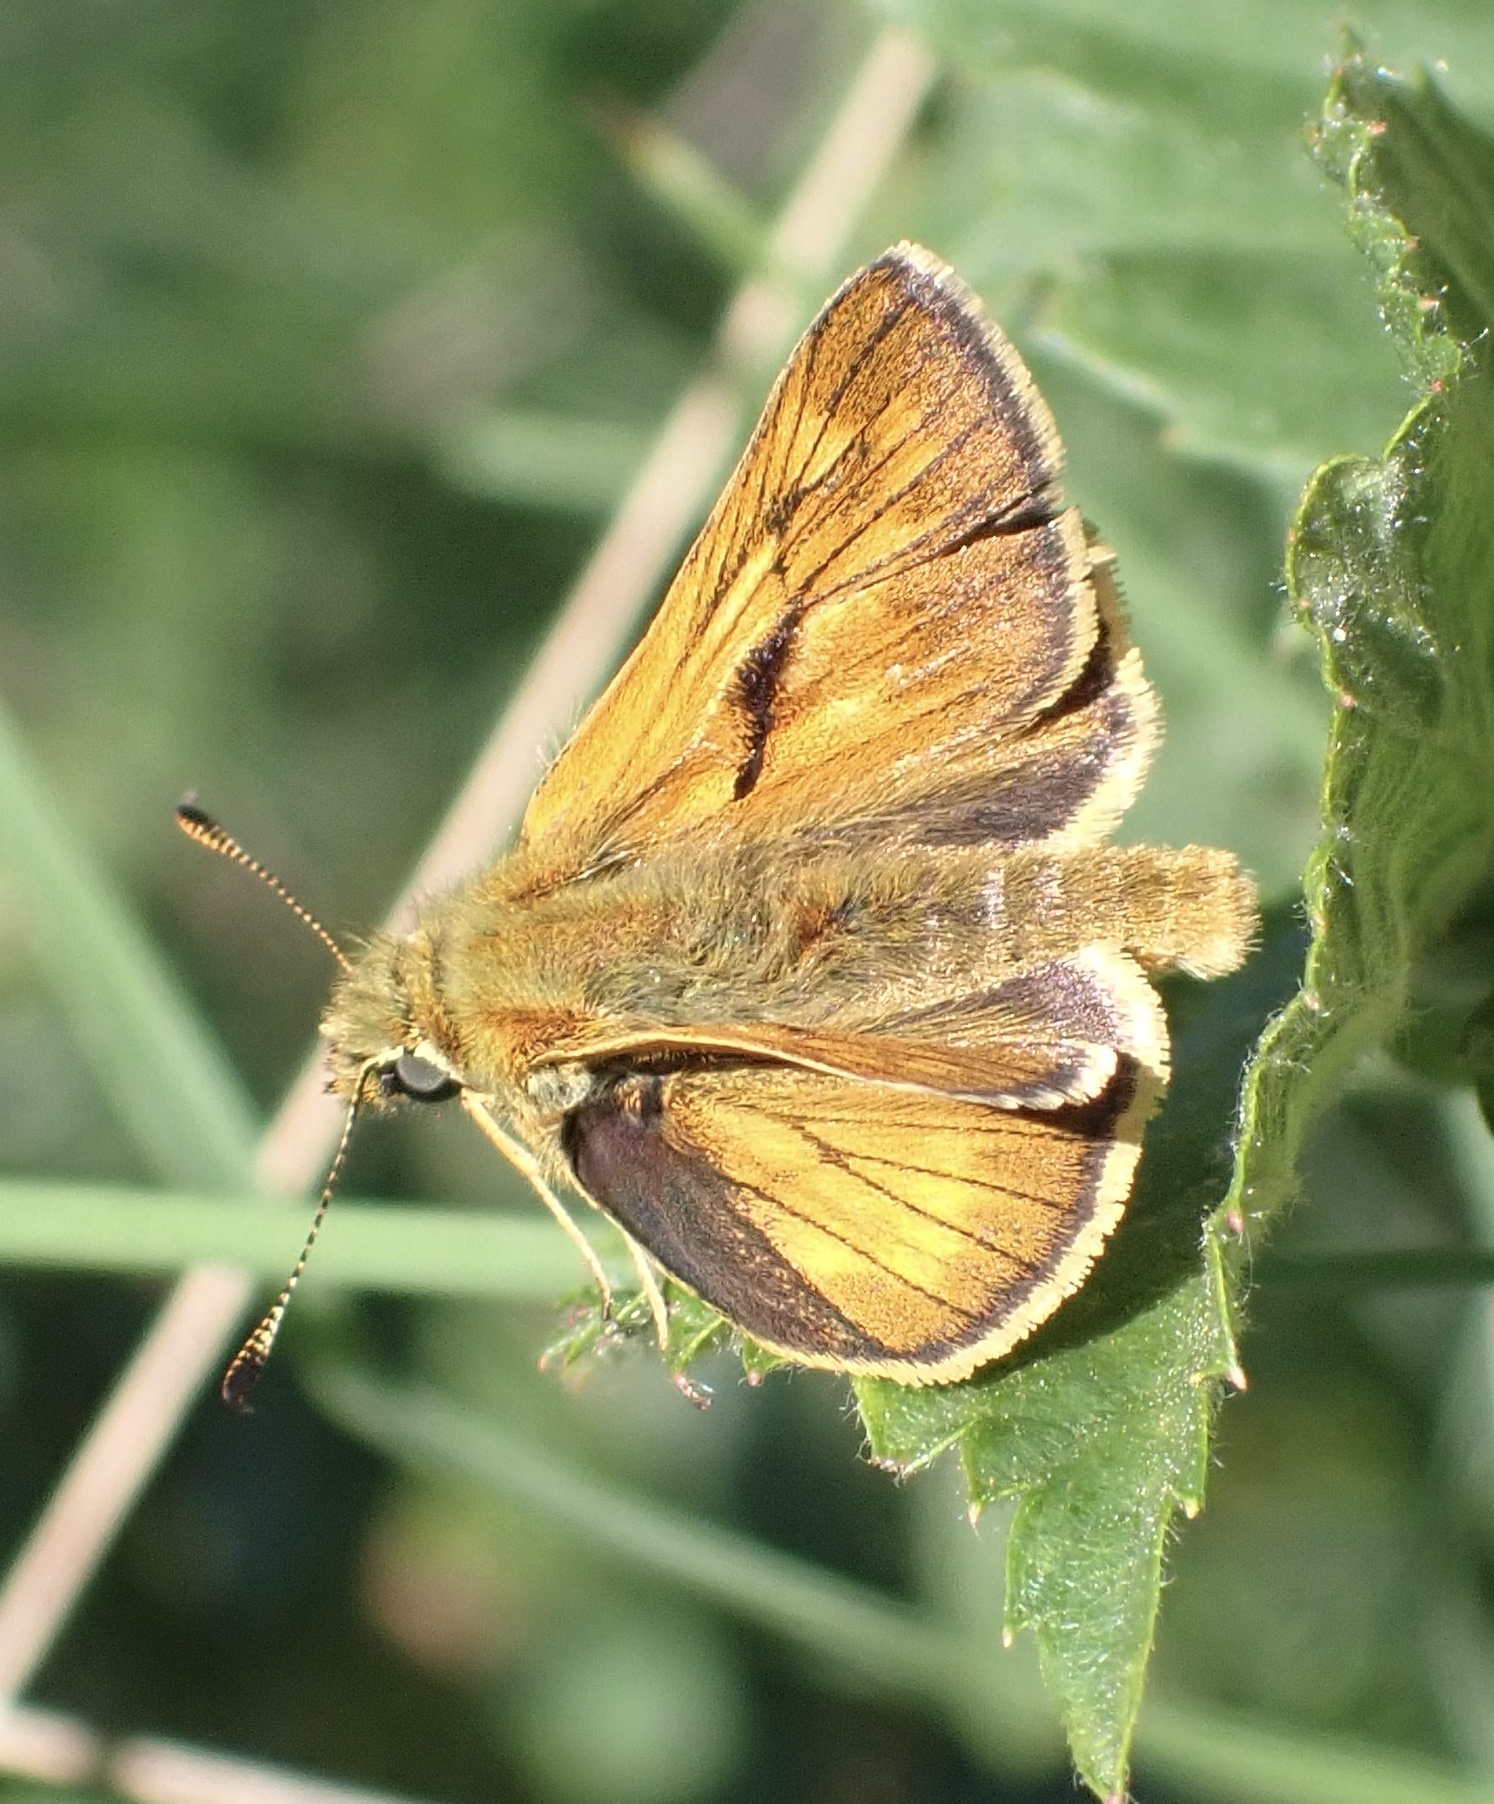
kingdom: Animalia
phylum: Arthropoda
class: Insecta
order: Lepidoptera
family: Hesperiidae
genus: Ochlodes
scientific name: Ochlodes venata
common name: Large skipper
